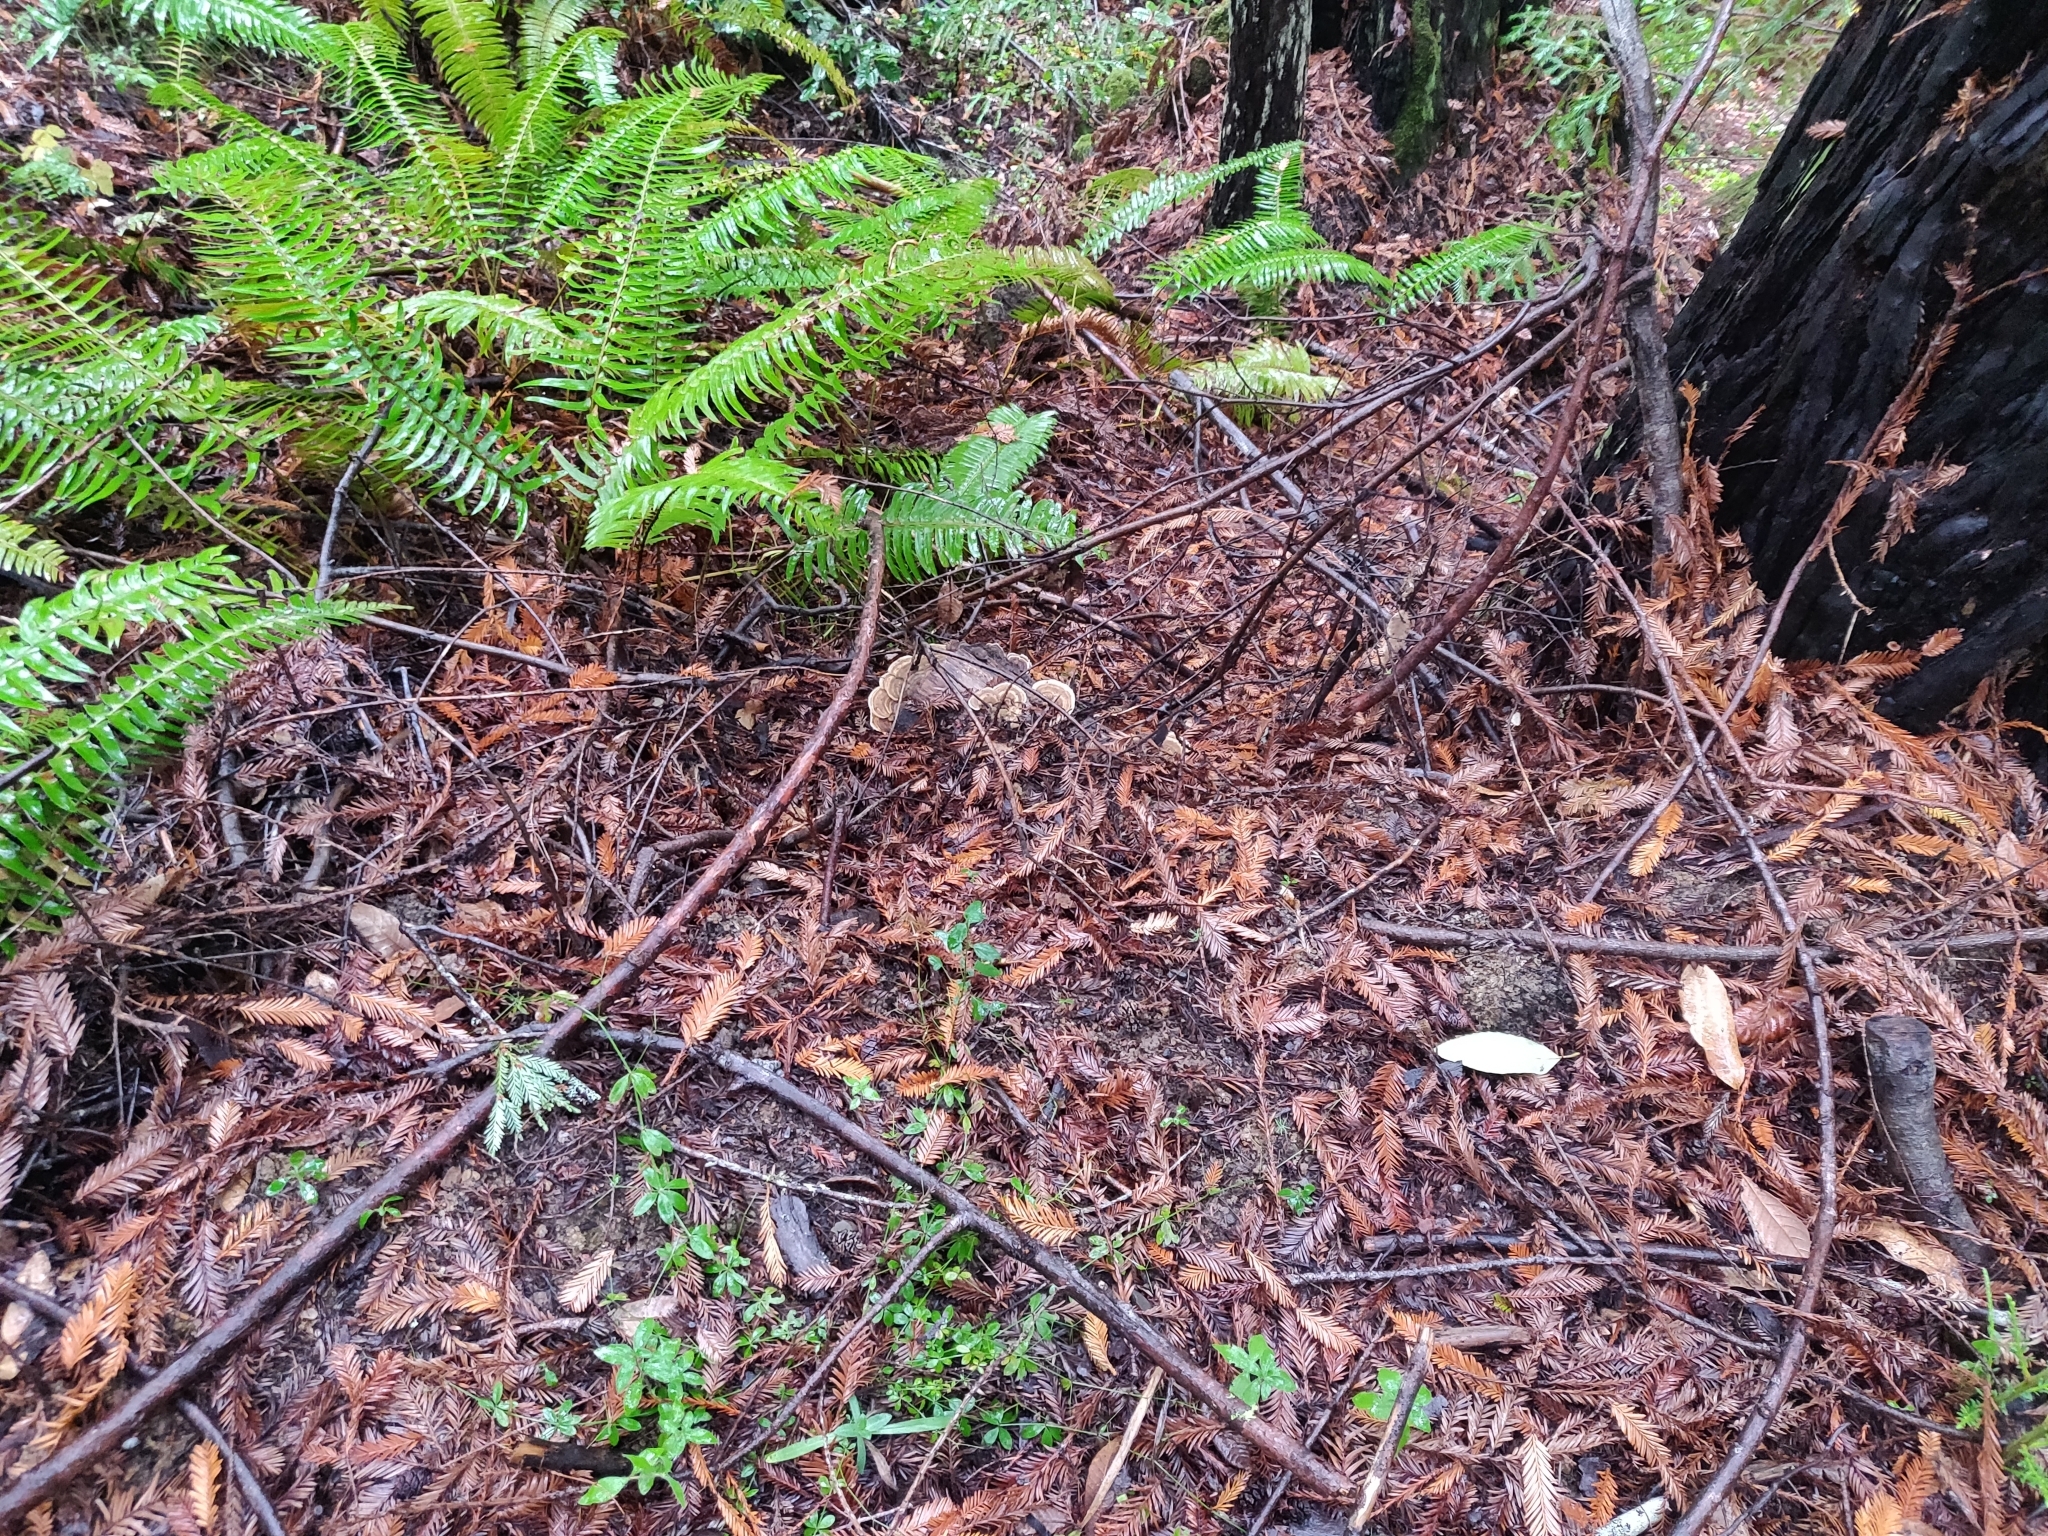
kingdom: Fungi
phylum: Basidiomycota
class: Agaricomycetes
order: Polyporales
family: Polyporaceae
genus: Lenzites
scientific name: Lenzites betulinus
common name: Birch mazegill
